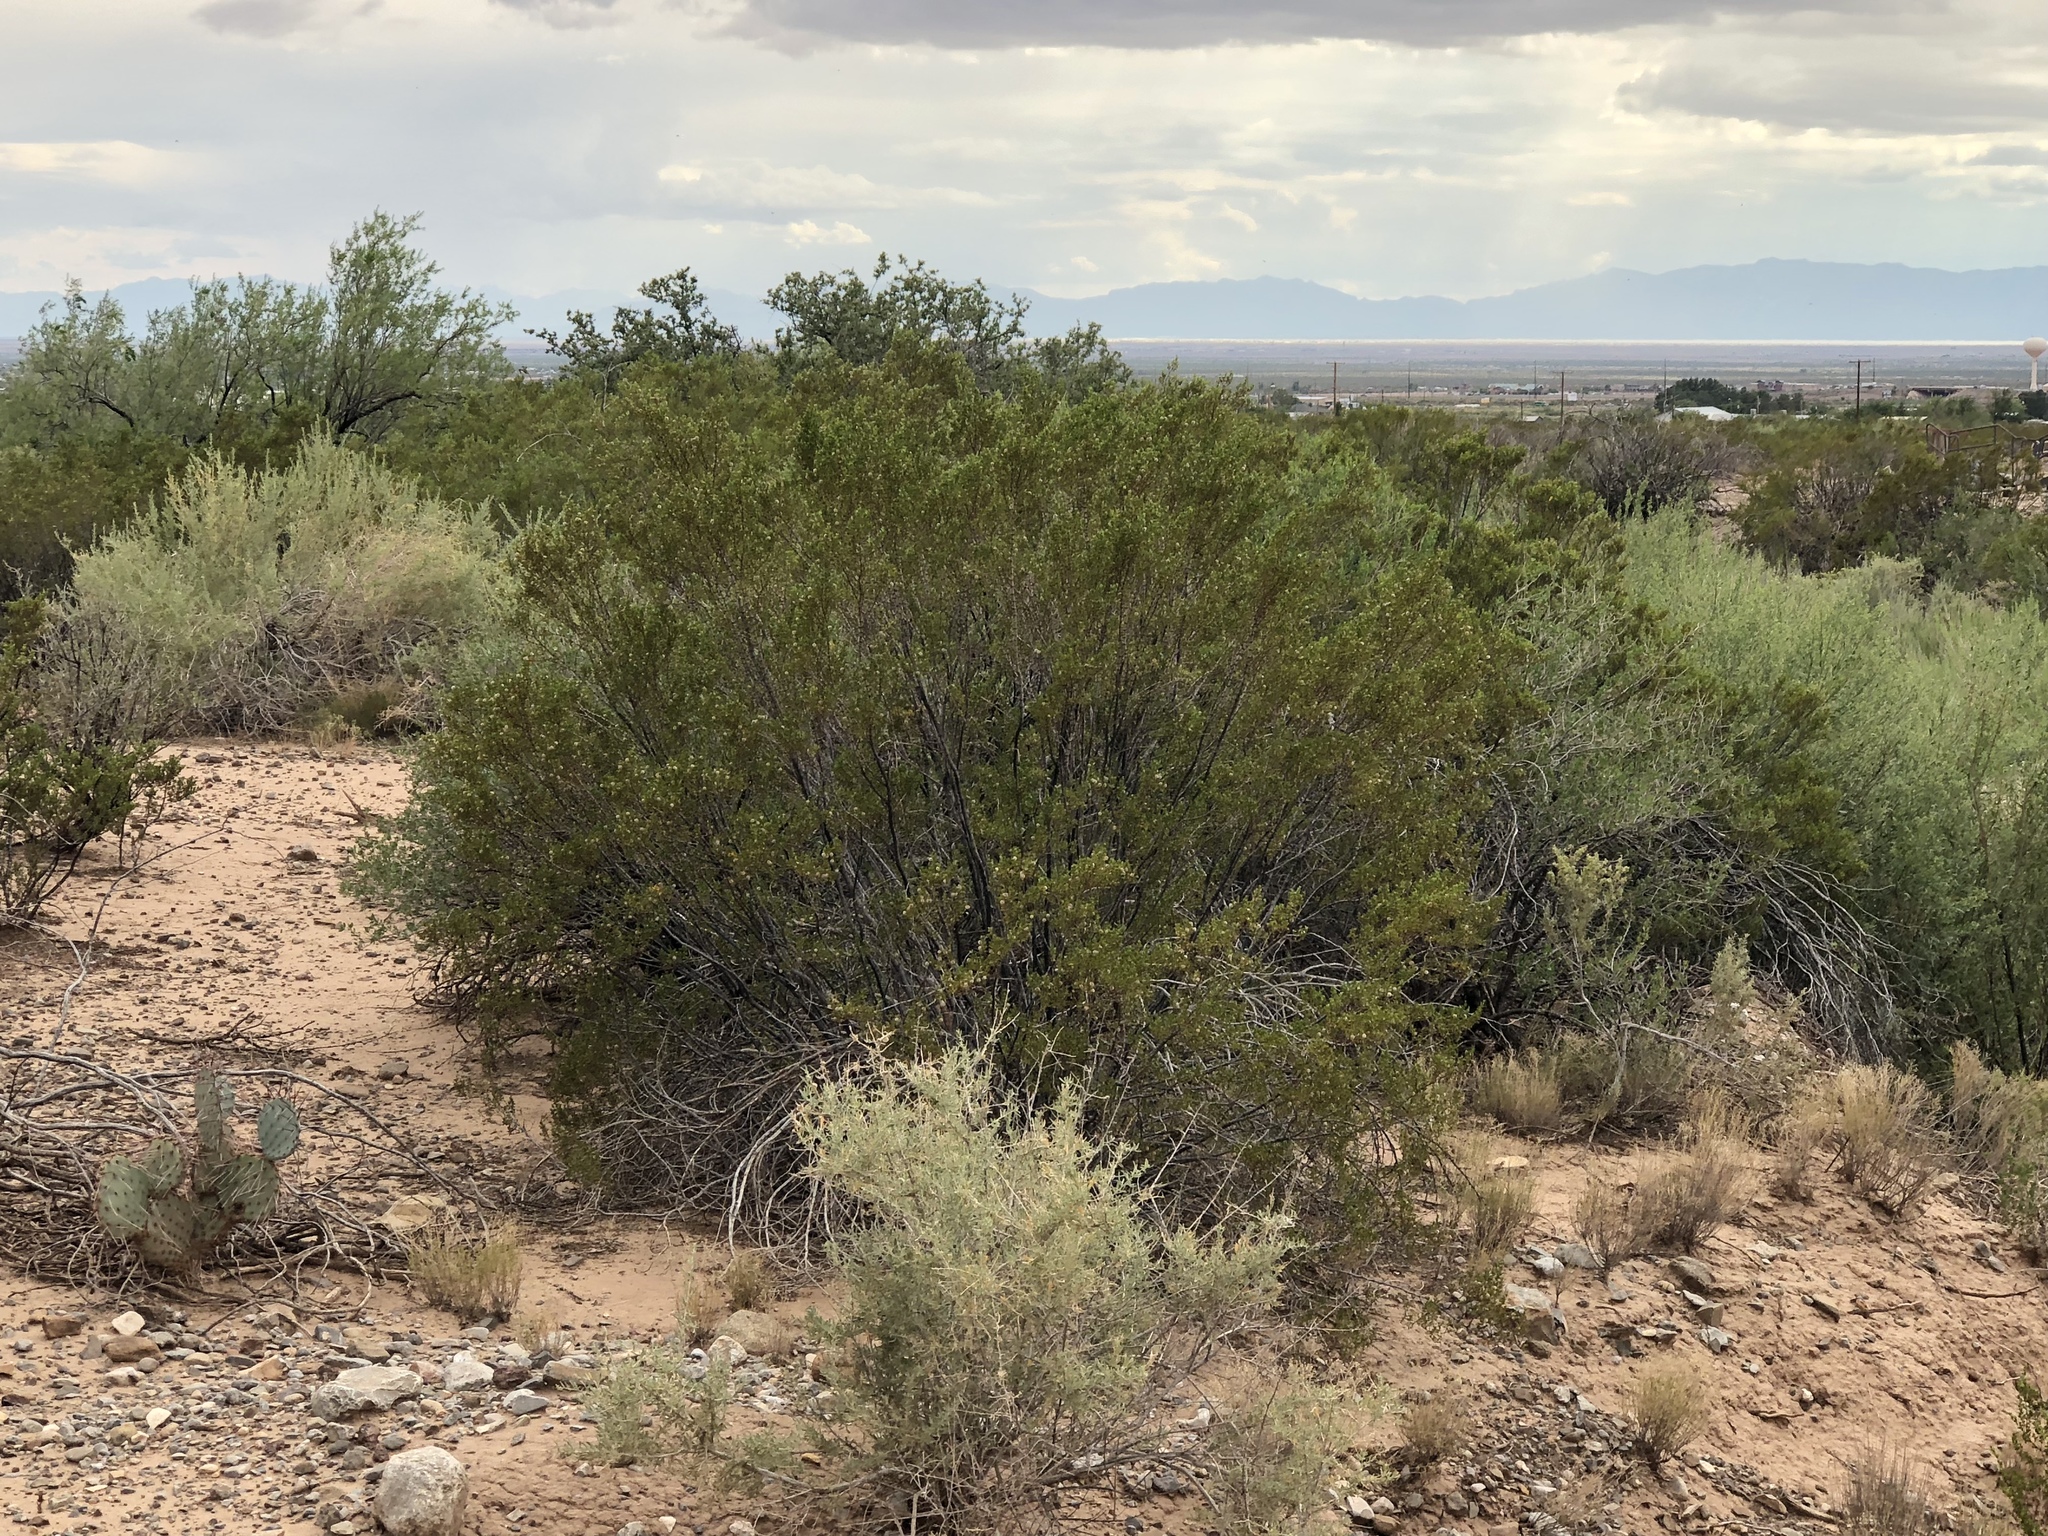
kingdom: Plantae
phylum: Tracheophyta
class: Magnoliopsida
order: Zygophyllales
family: Zygophyllaceae
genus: Larrea
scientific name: Larrea tridentata
